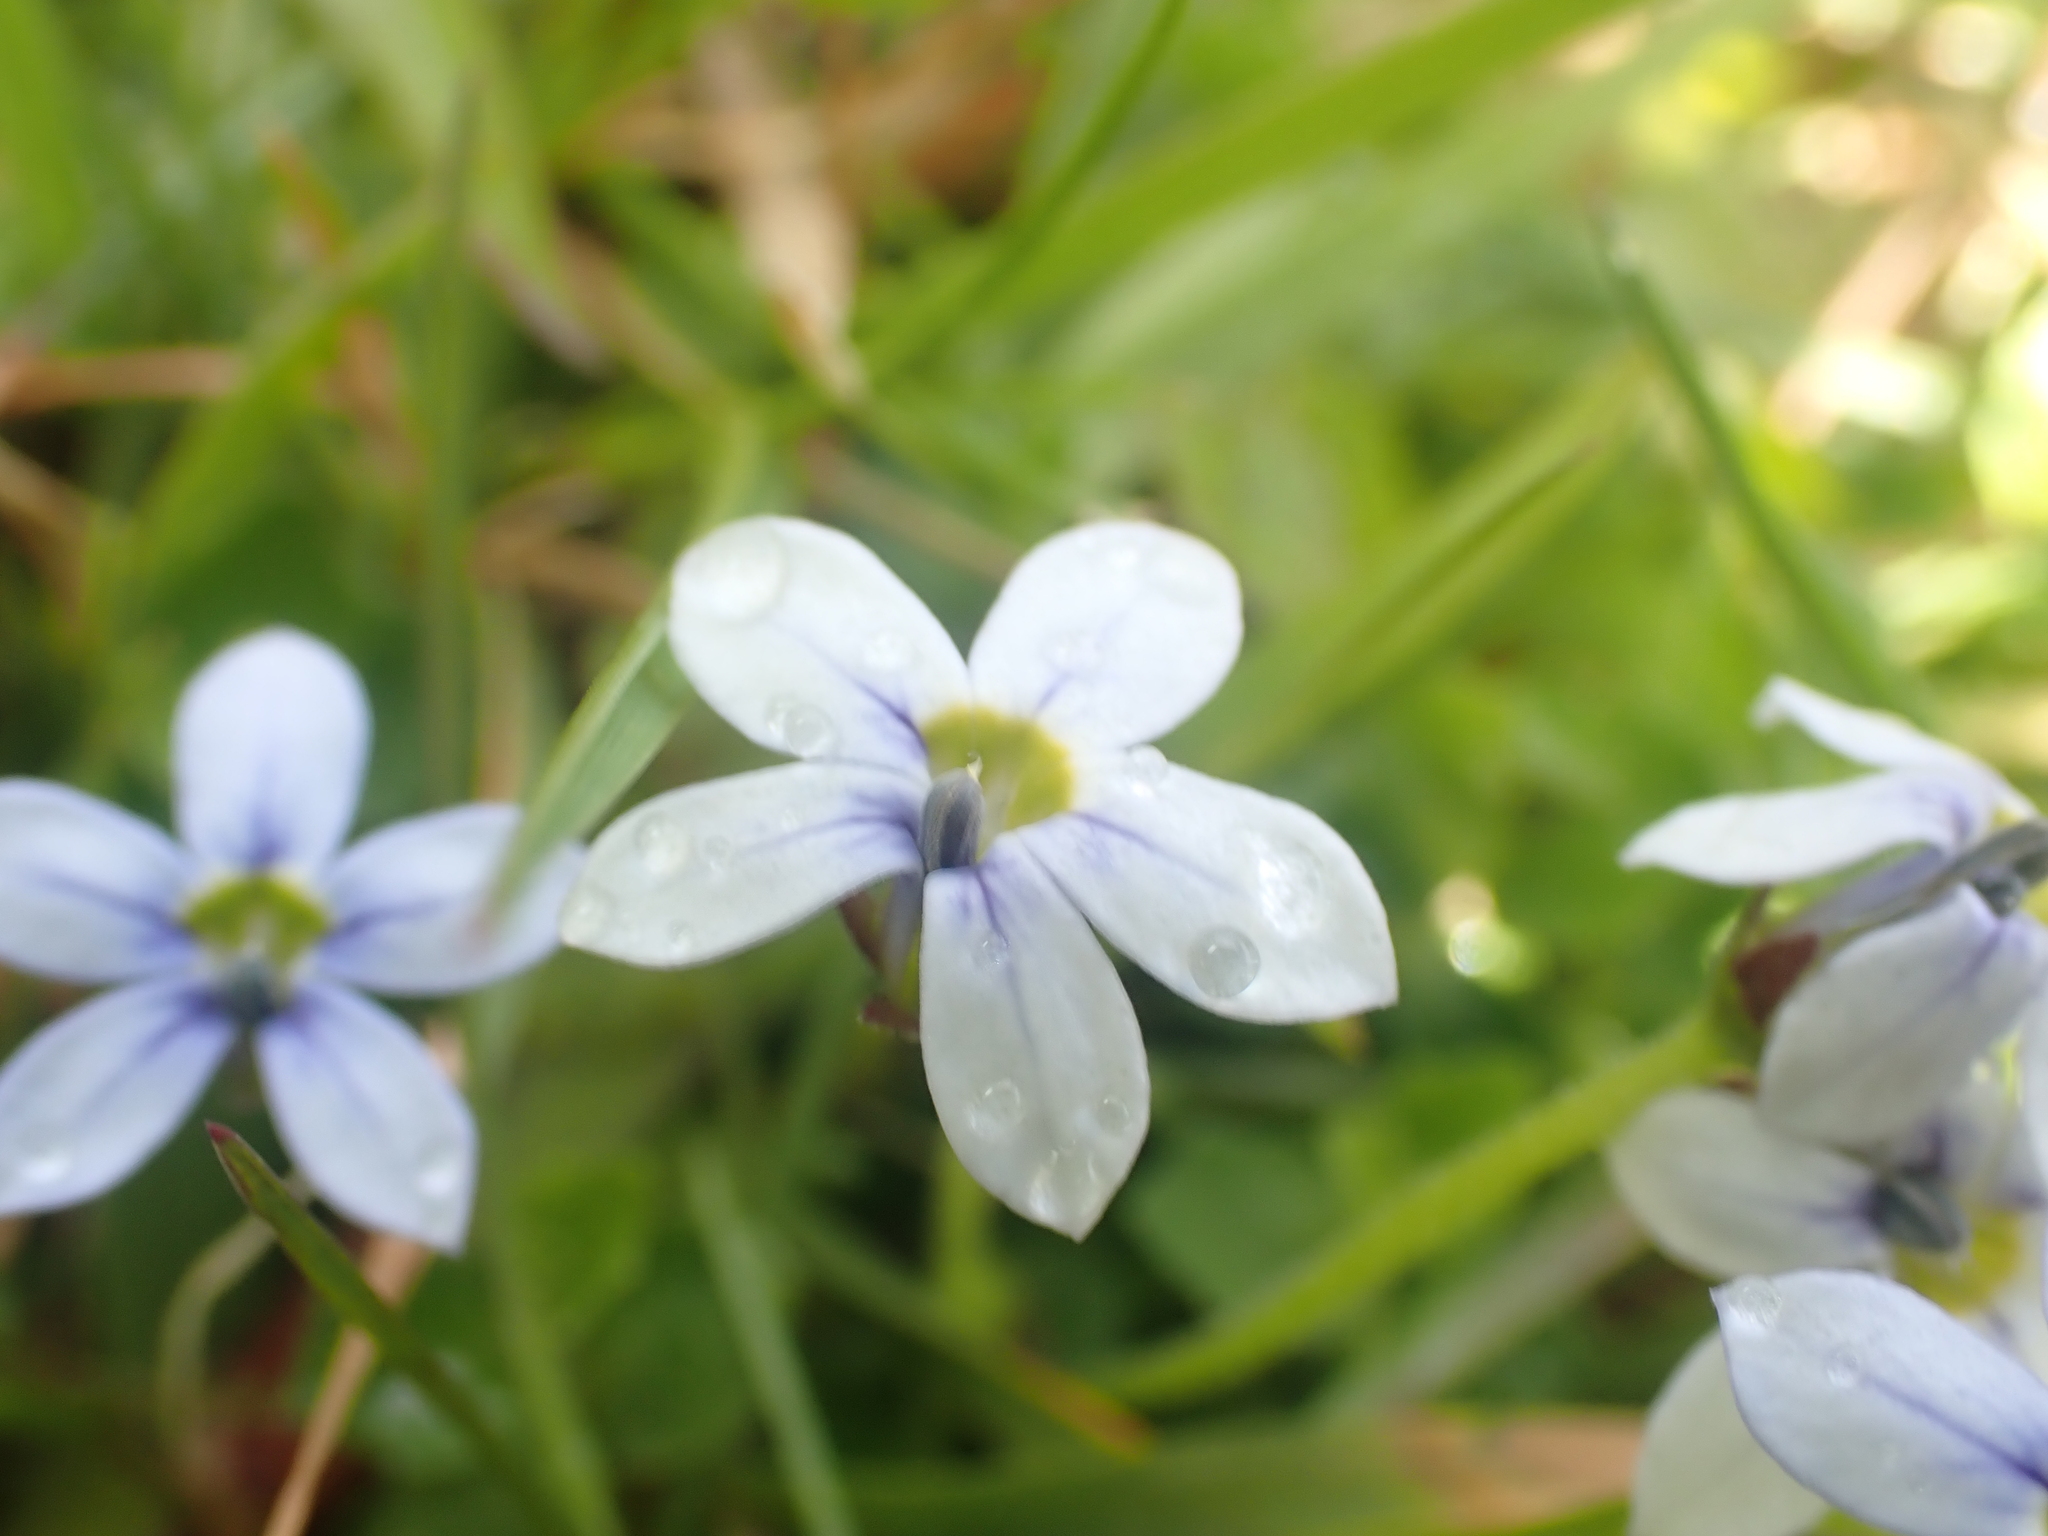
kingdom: Plantae
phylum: Tracheophyta
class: Magnoliopsida
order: Asterales
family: Campanulaceae
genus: Lobelia
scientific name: Lobelia pedunculata
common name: Matted pratia
